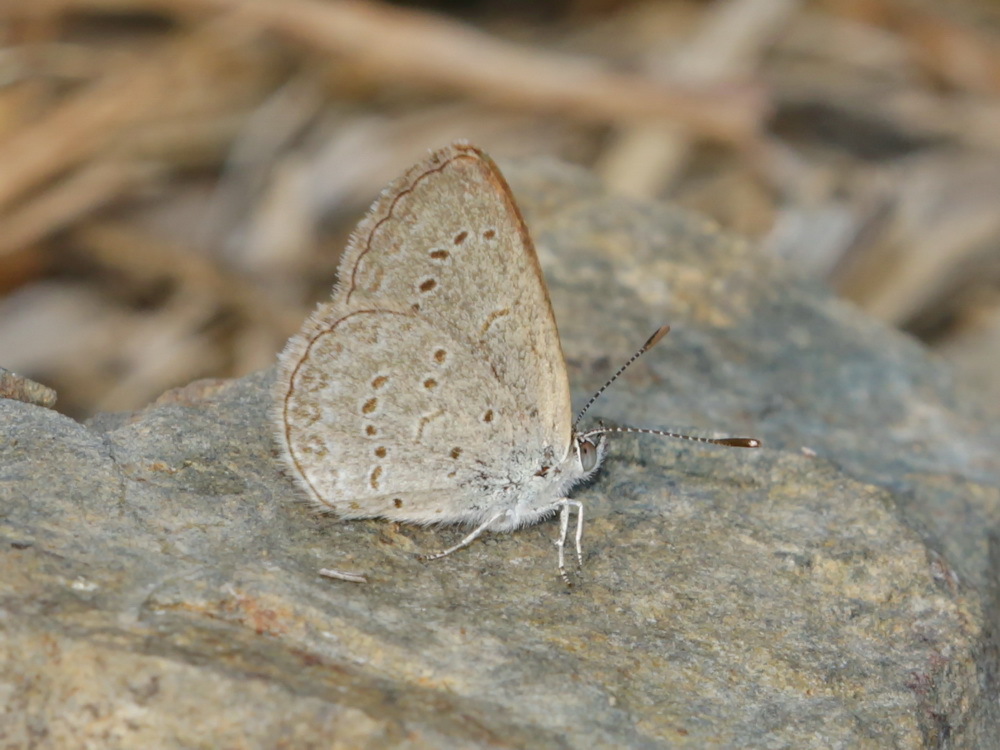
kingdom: Animalia
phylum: Arthropoda
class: Insecta
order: Lepidoptera
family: Lycaenidae
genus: Zizina
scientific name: Zizina otis
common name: Lesser grass blue
